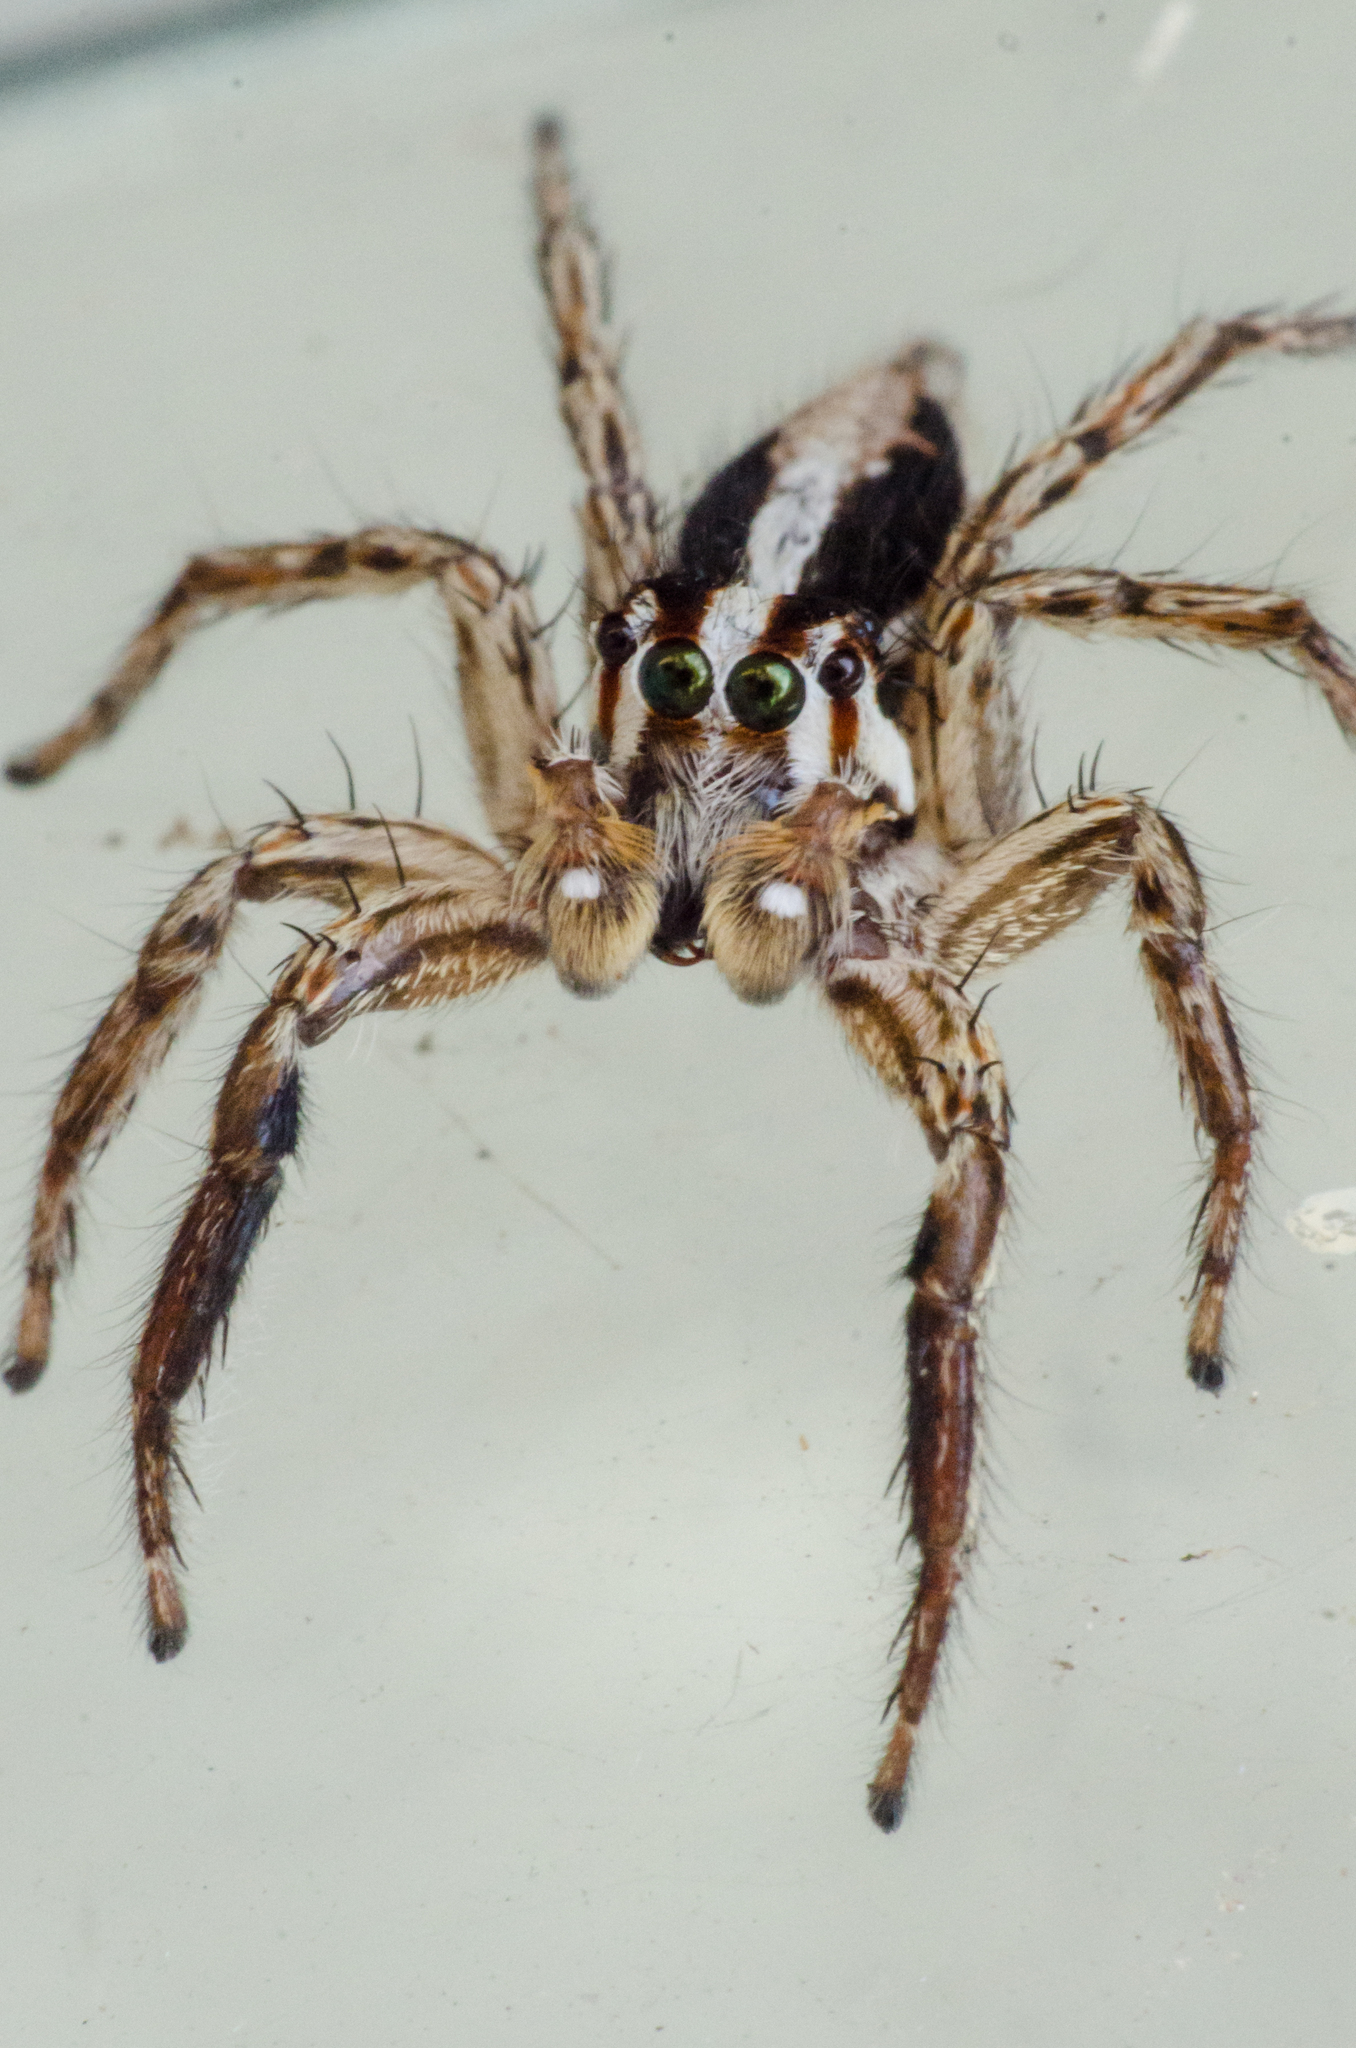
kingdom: Animalia
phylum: Arthropoda
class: Arachnida
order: Araneae
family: Salticidae
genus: Plexippus
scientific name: Plexippus paykulli
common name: Pantropical jumper
